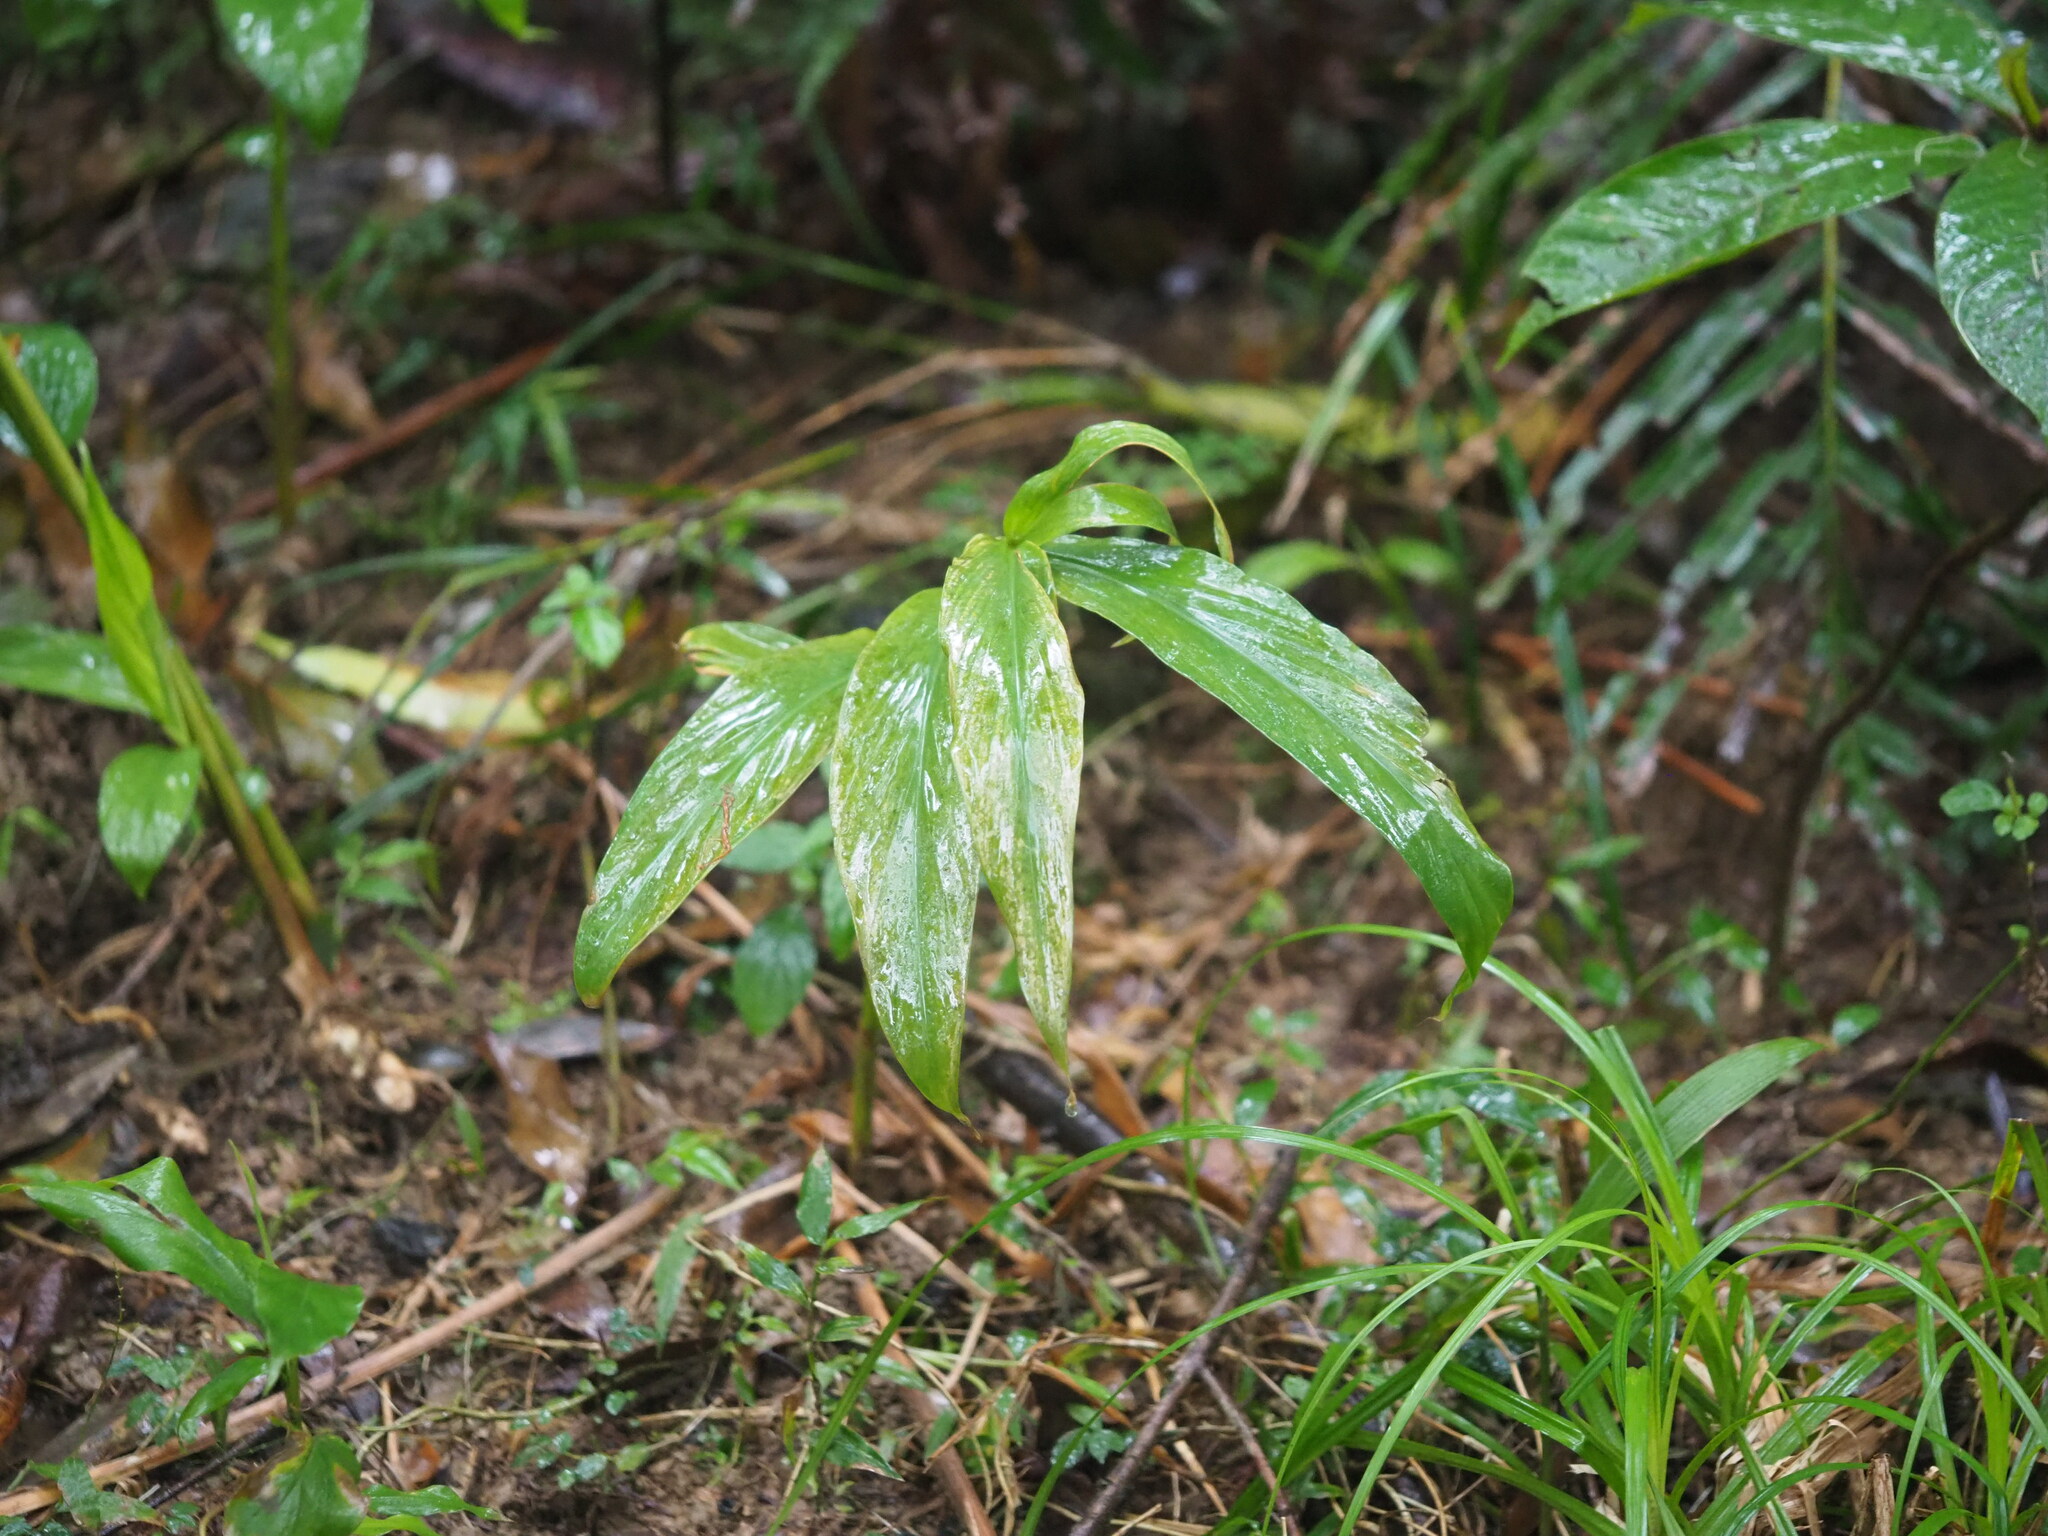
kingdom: Plantae
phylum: Tracheophyta
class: Liliopsida
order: Zingiberales
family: Zingiberaceae
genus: Zingiber
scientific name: Zingiber kawagoii
